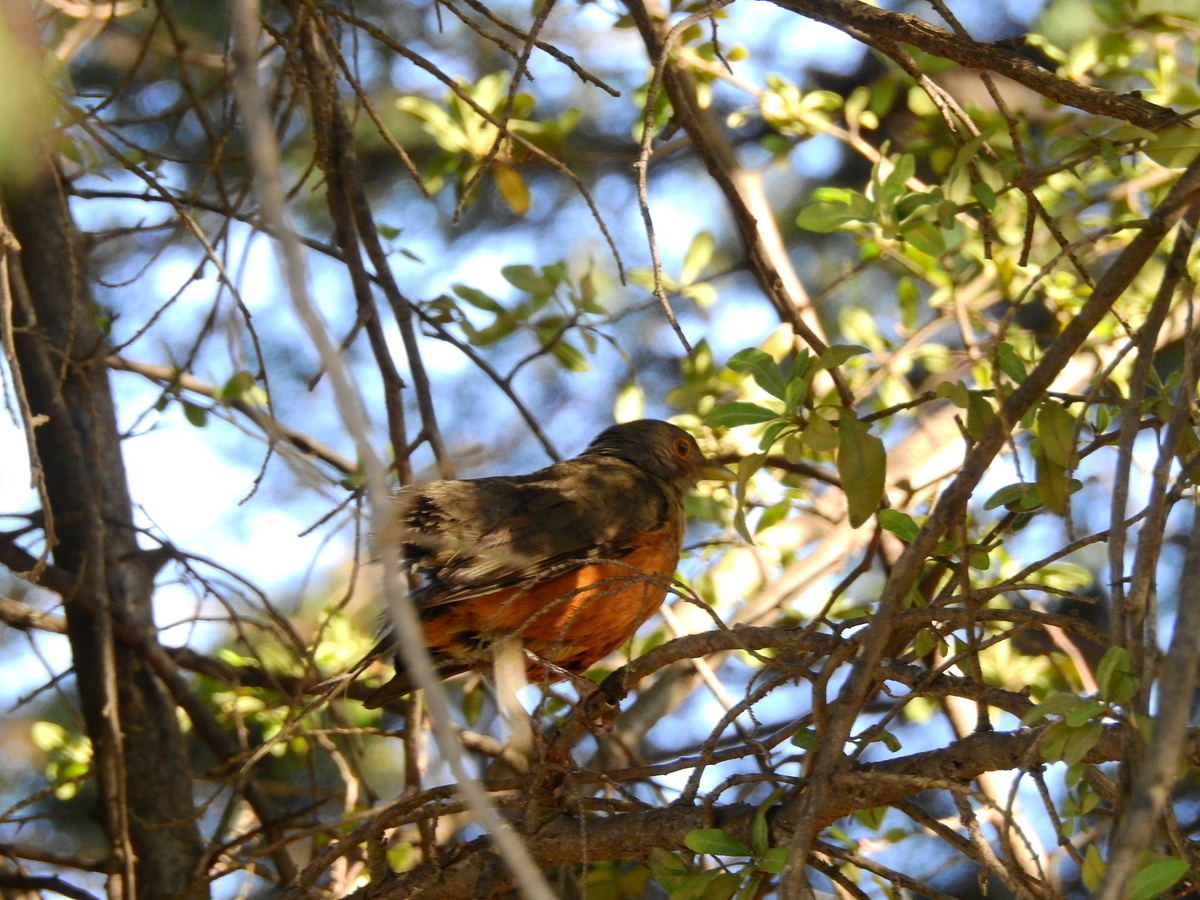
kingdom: Animalia
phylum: Chordata
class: Aves
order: Passeriformes
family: Turdidae
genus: Turdus
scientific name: Turdus rufiventris
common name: Rufous-bellied thrush
